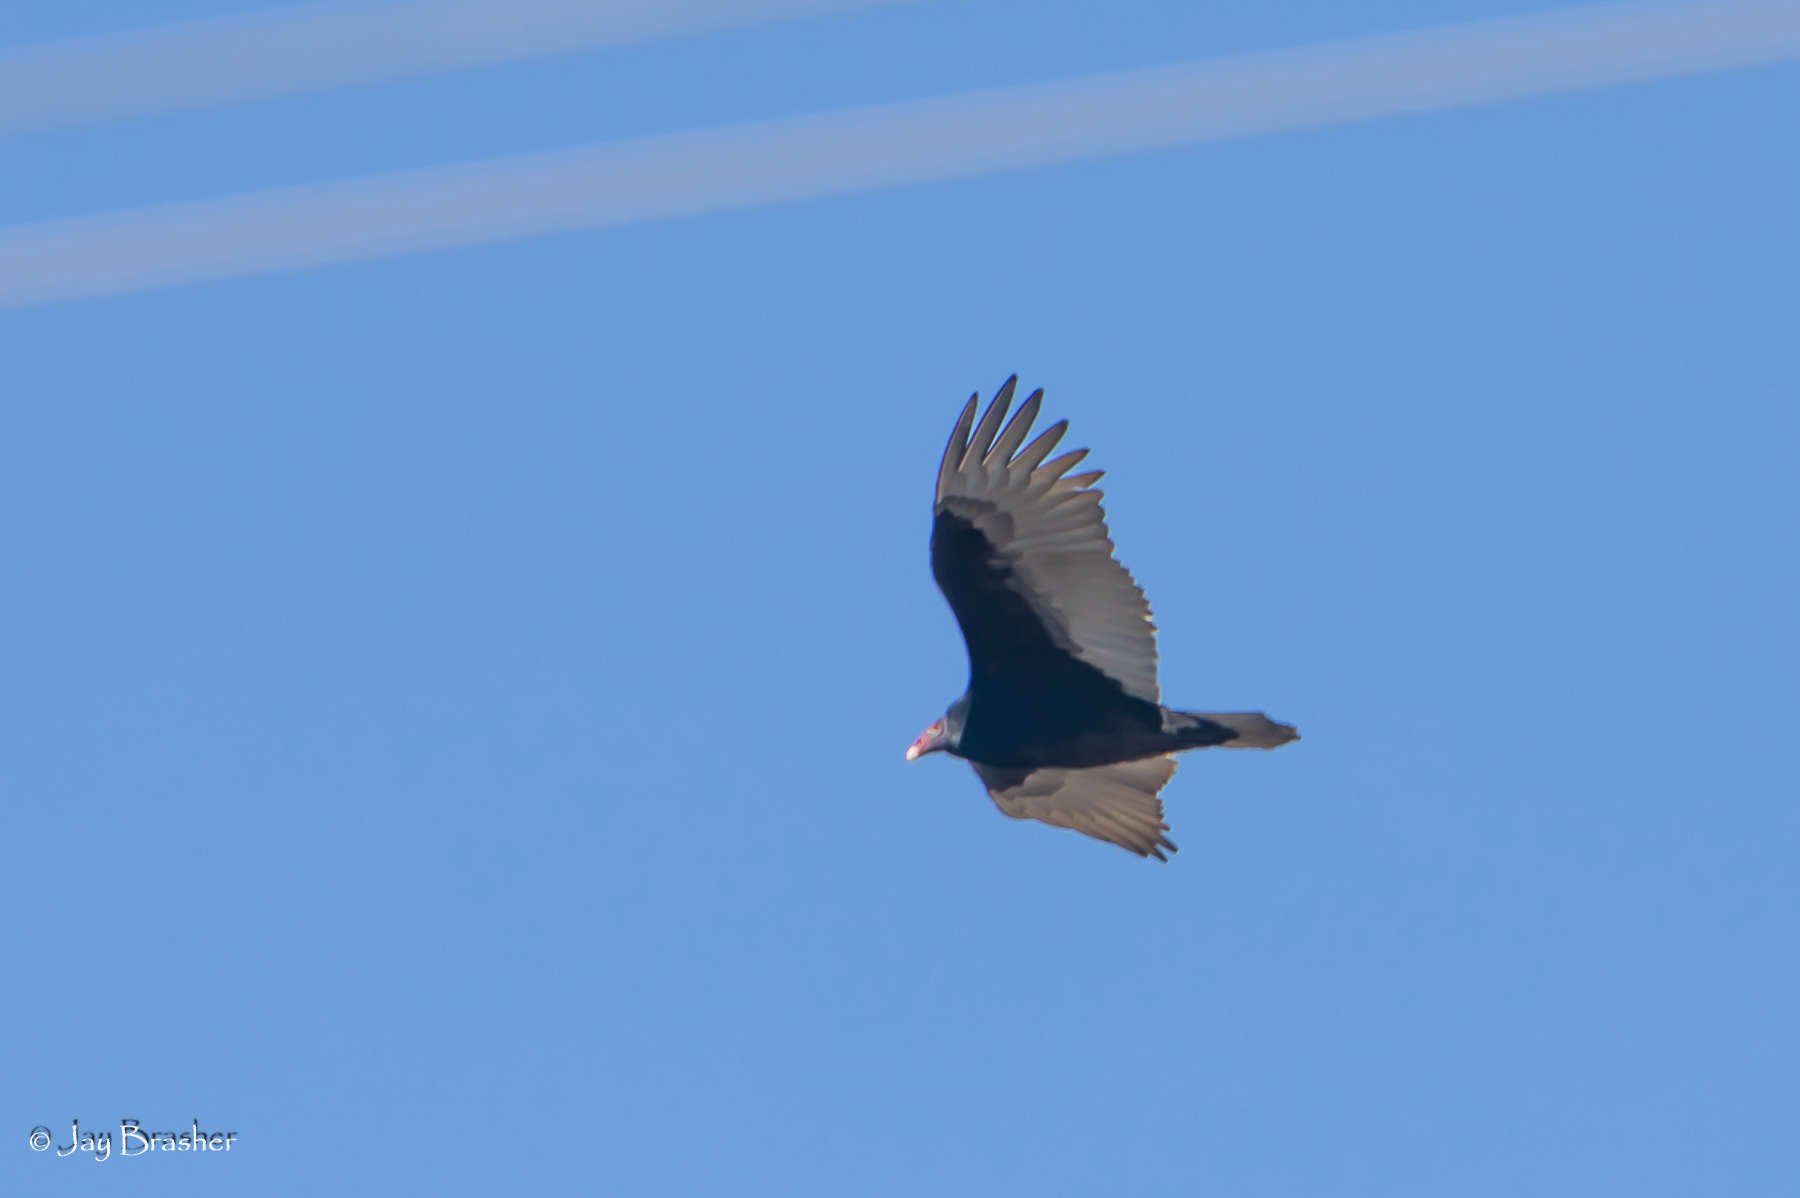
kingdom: Animalia
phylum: Chordata
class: Aves
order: Accipitriformes
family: Cathartidae
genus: Cathartes
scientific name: Cathartes aura
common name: Turkey vulture
